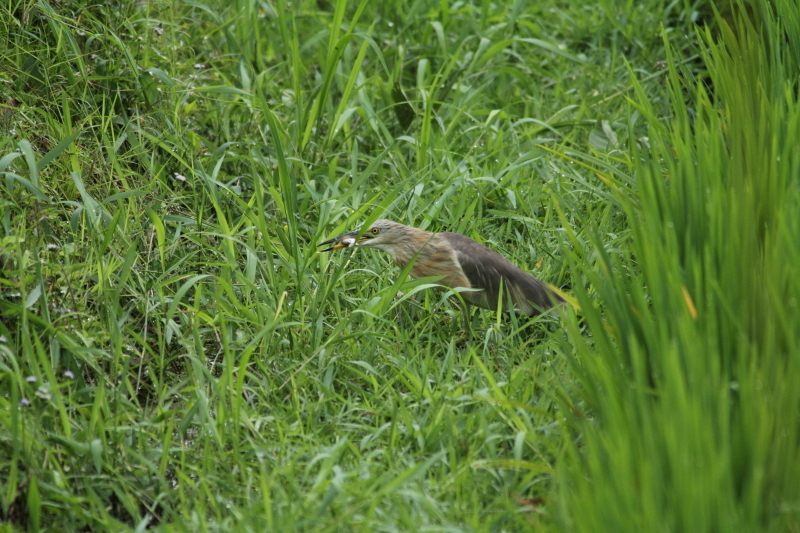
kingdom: Animalia
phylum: Chordata
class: Aves
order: Pelecaniformes
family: Ardeidae
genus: Ardeola
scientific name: Ardeola speciosa
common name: Javan pond heron
